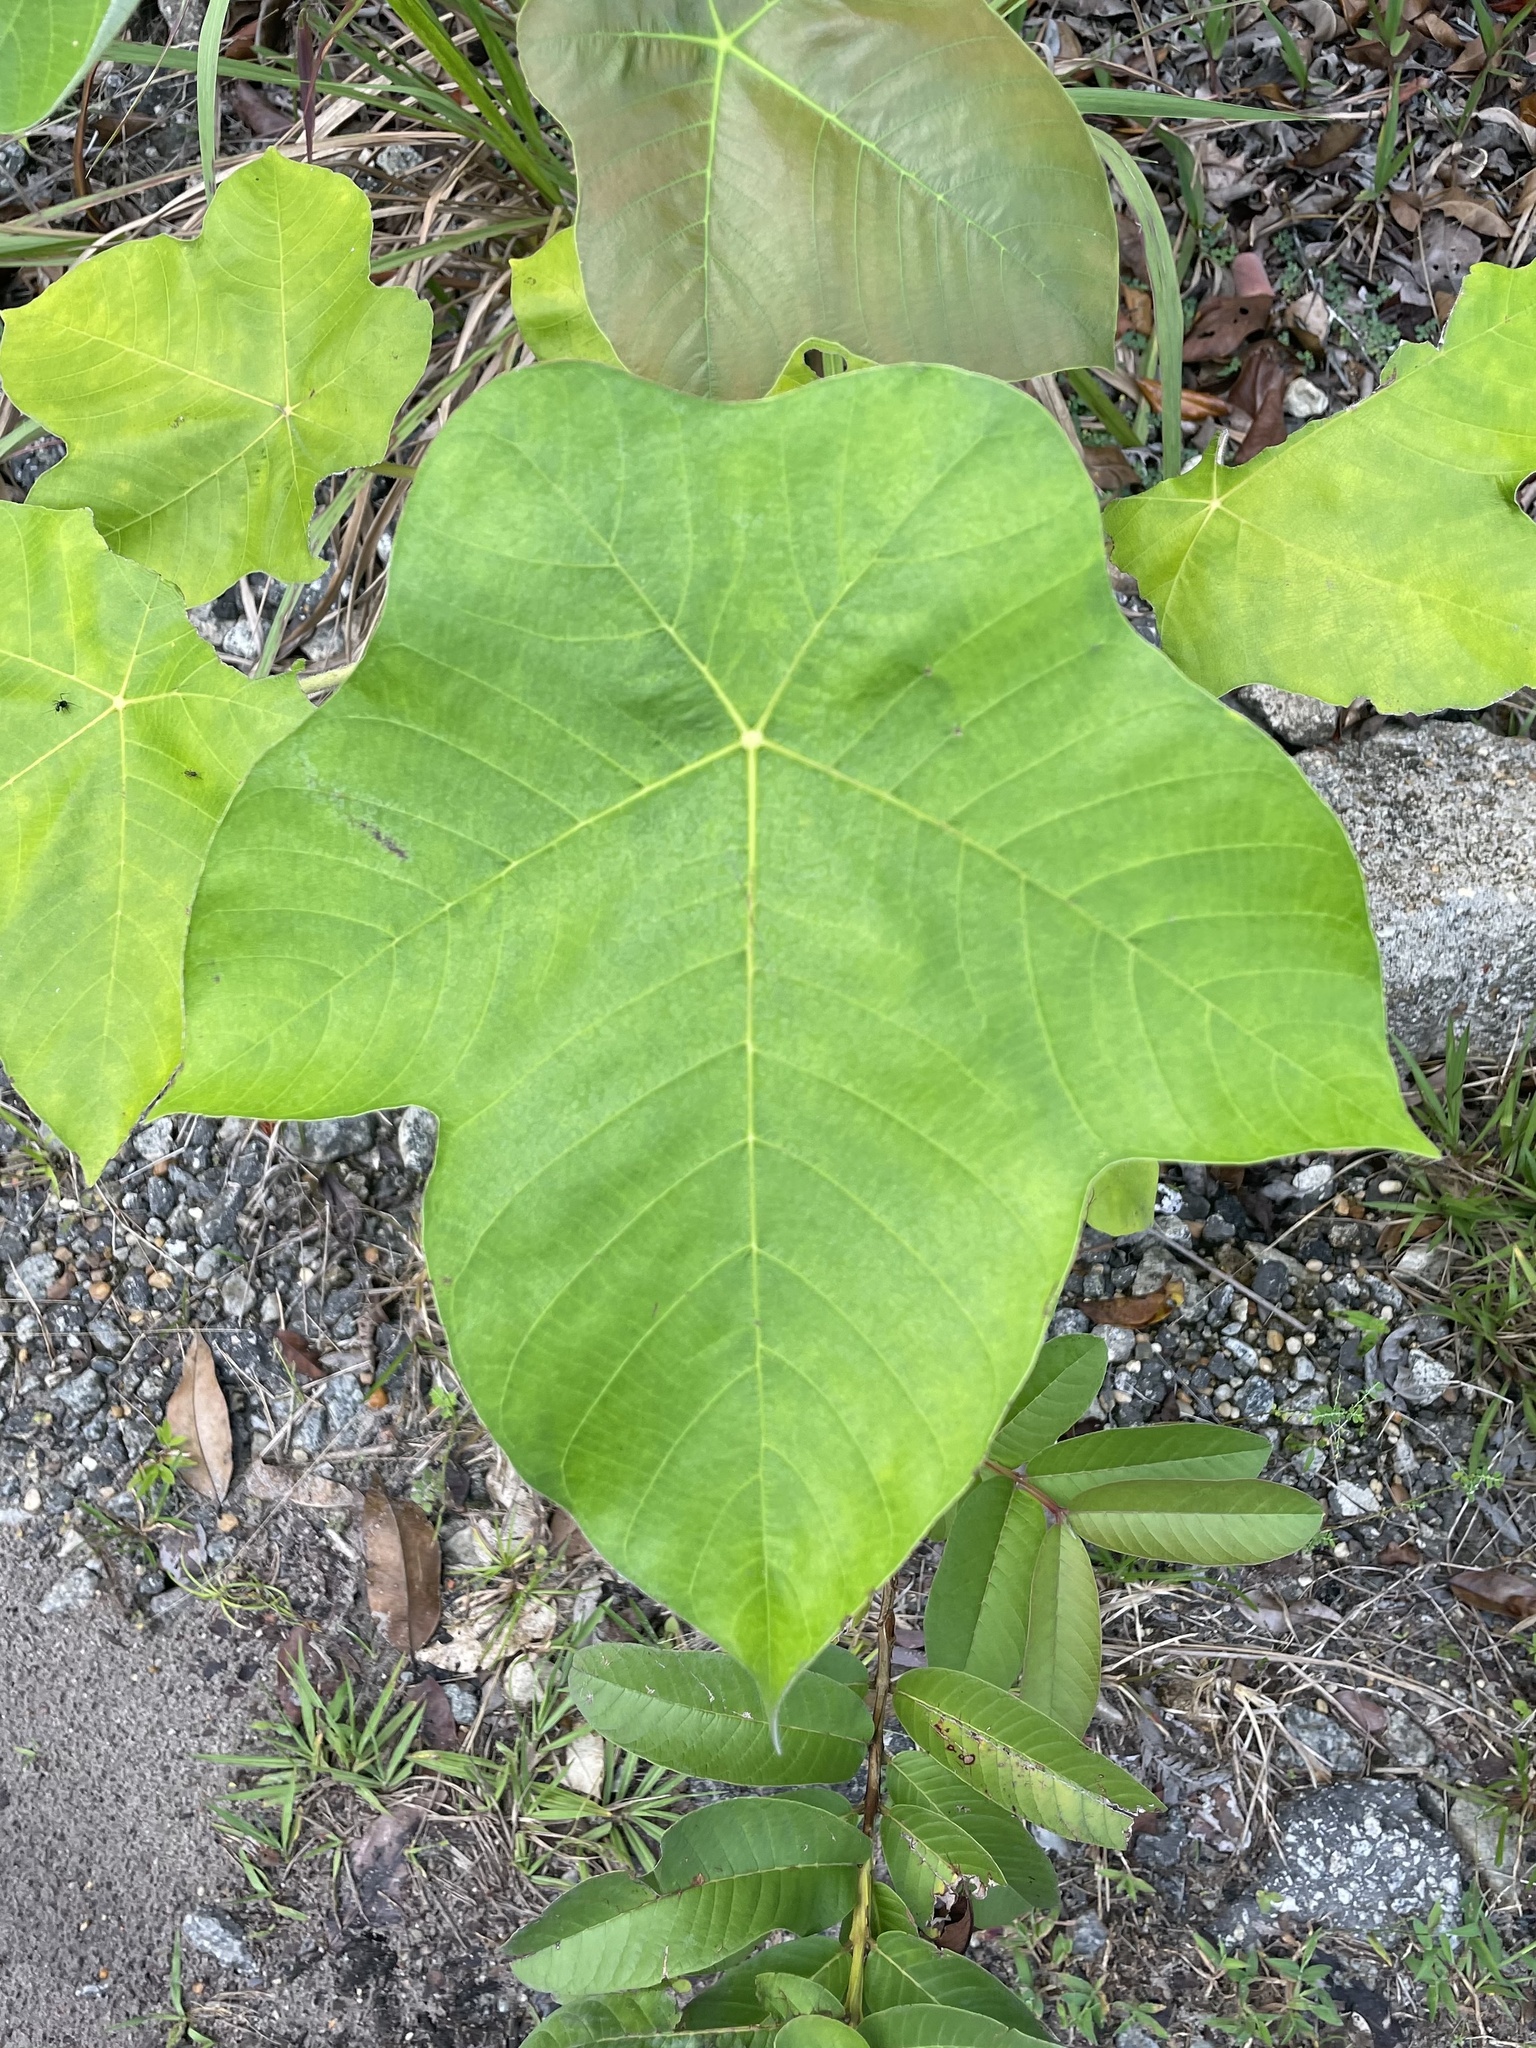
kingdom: Plantae
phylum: Tracheophyta
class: Magnoliopsida
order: Rosales
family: Urticaceae
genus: Cecropia
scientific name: Cecropia ficifolia
